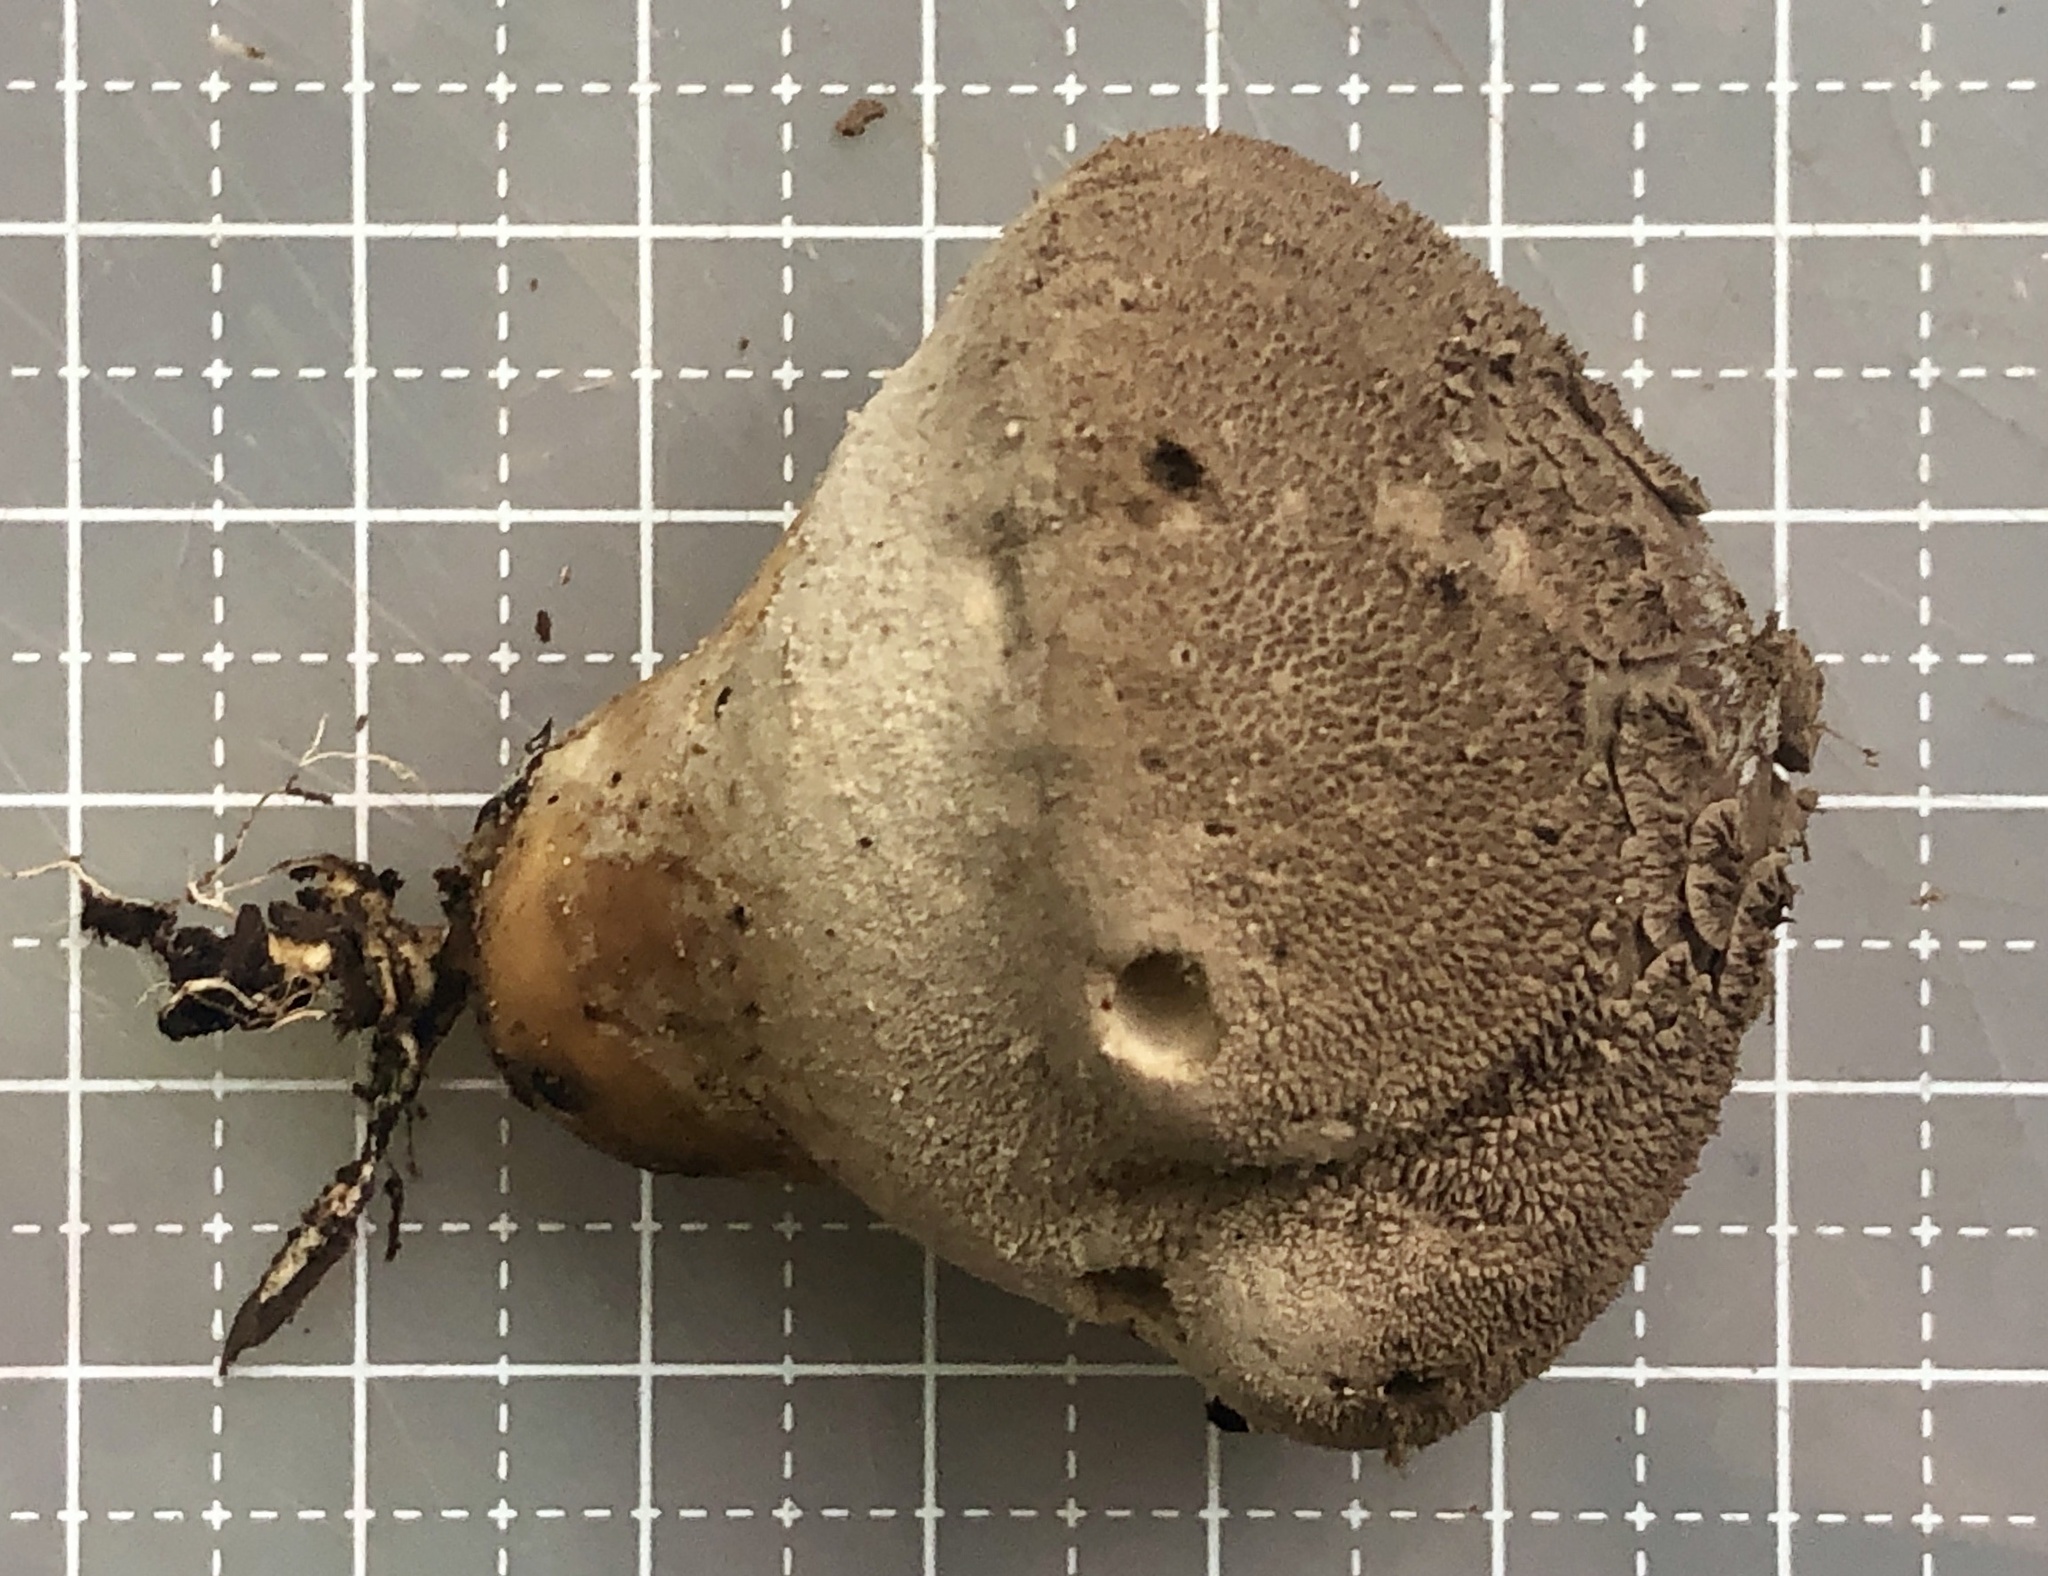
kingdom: Fungi
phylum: Basidiomycota
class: Agaricomycetes
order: Agaricales
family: Agaricaceae
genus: Lycoperdon
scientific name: Lycoperdon marginatum
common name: Peeling puffball
